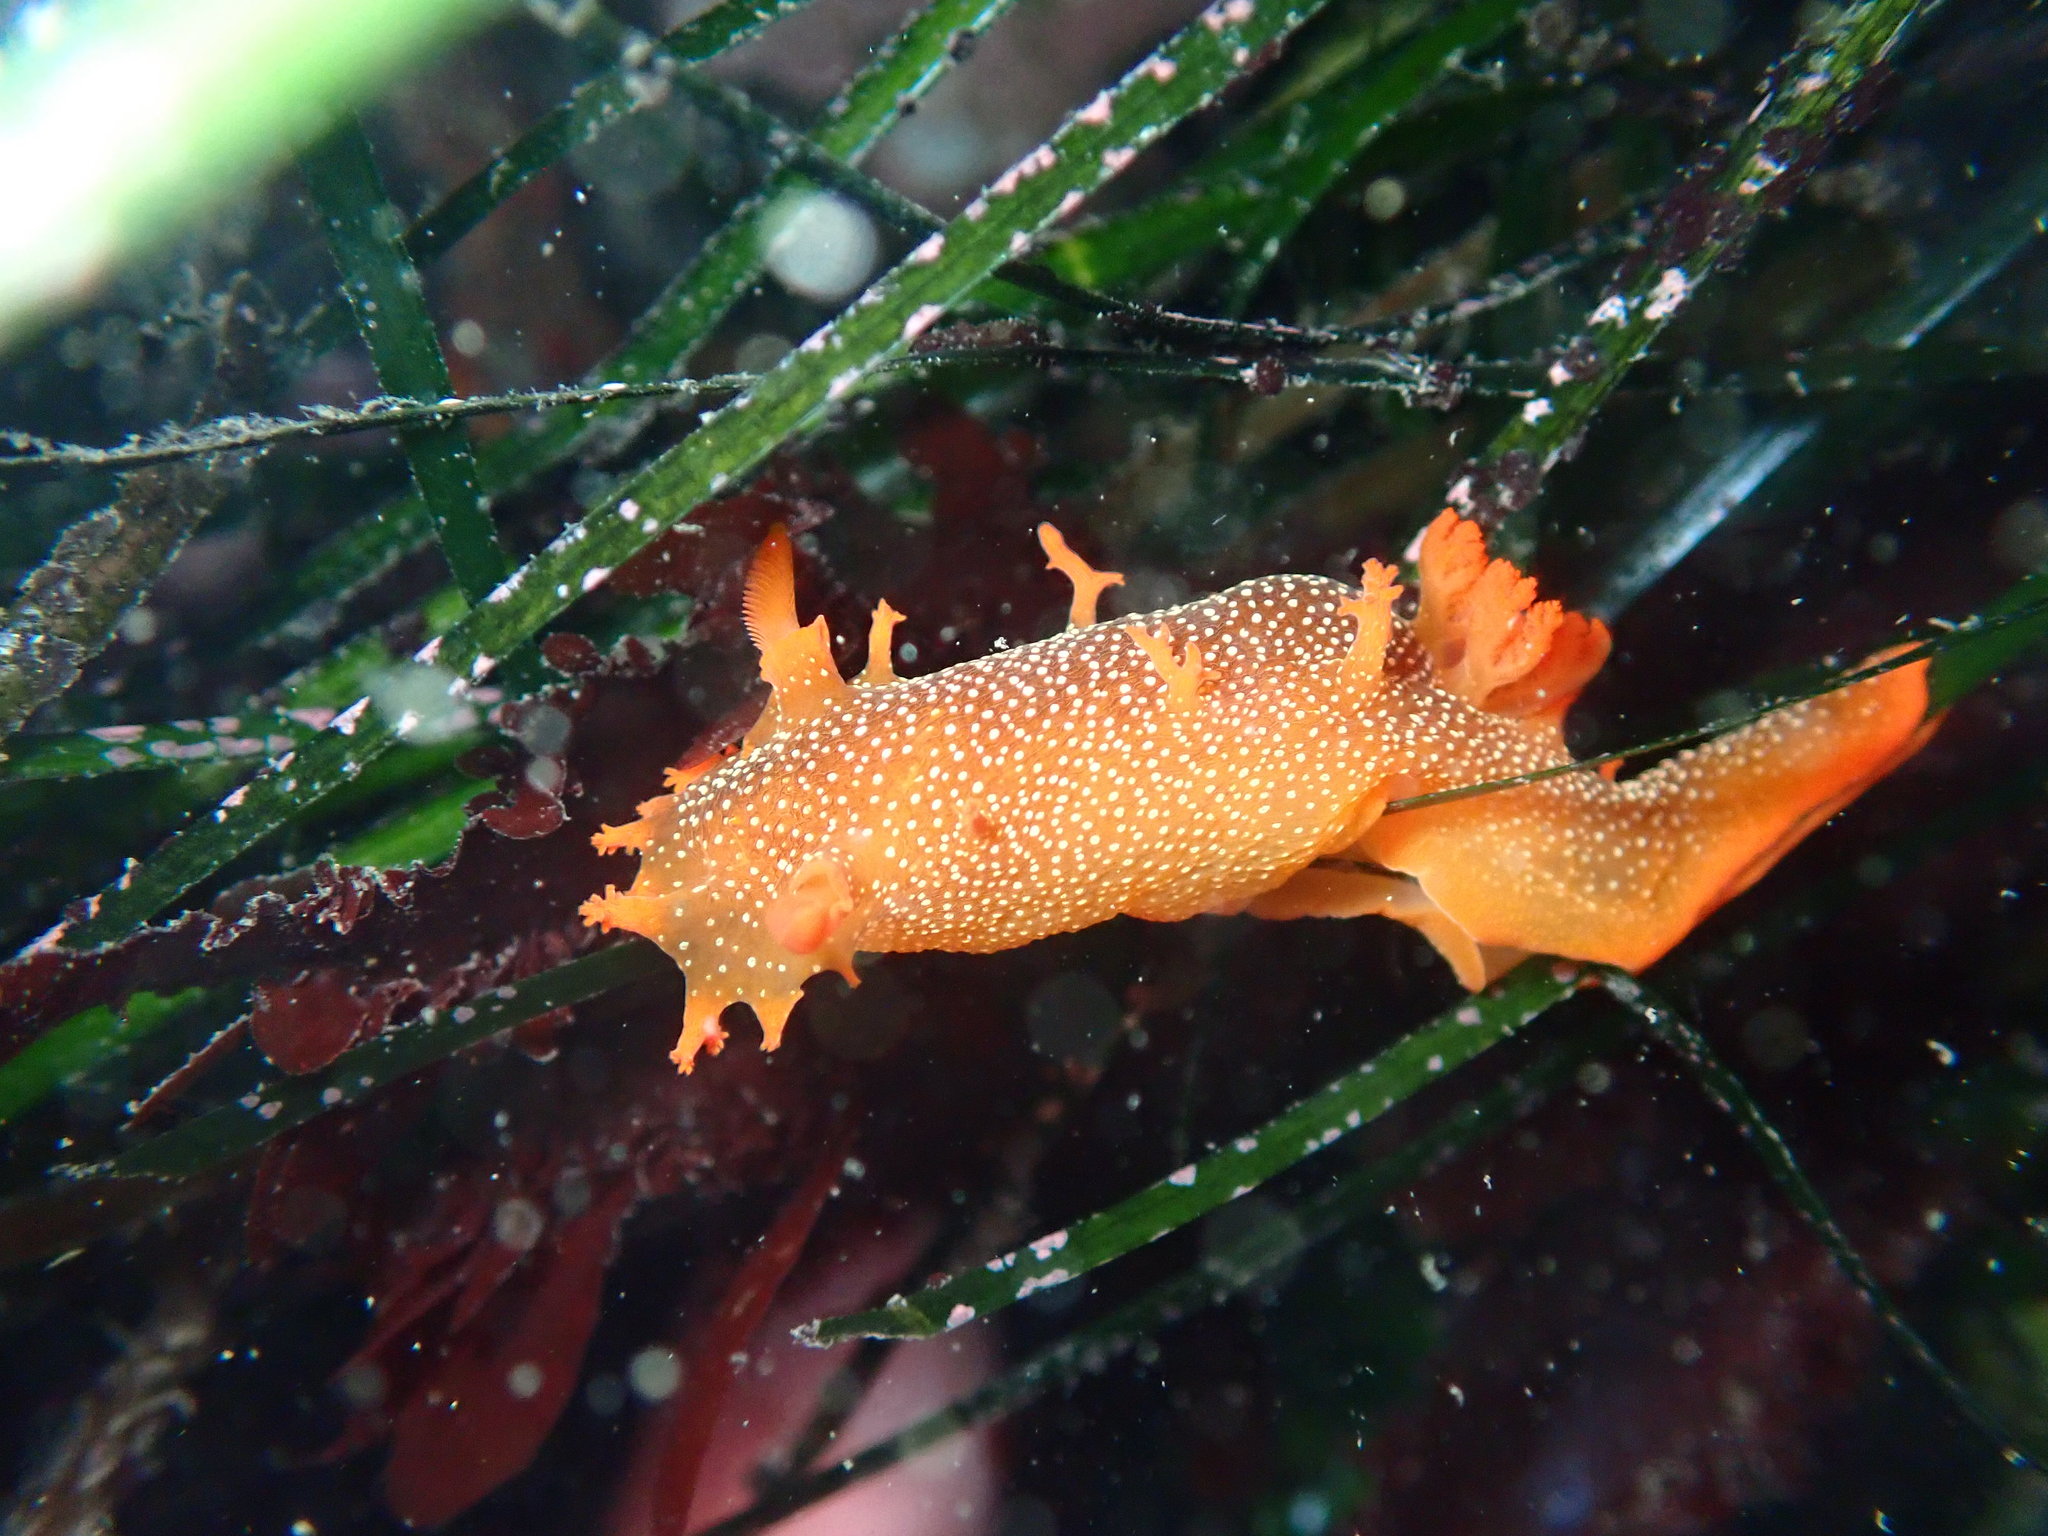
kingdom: Animalia
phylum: Mollusca
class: Gastropoda
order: Nudibranchia
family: Polyceridae
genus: Triopha
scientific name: Triopha maculata
